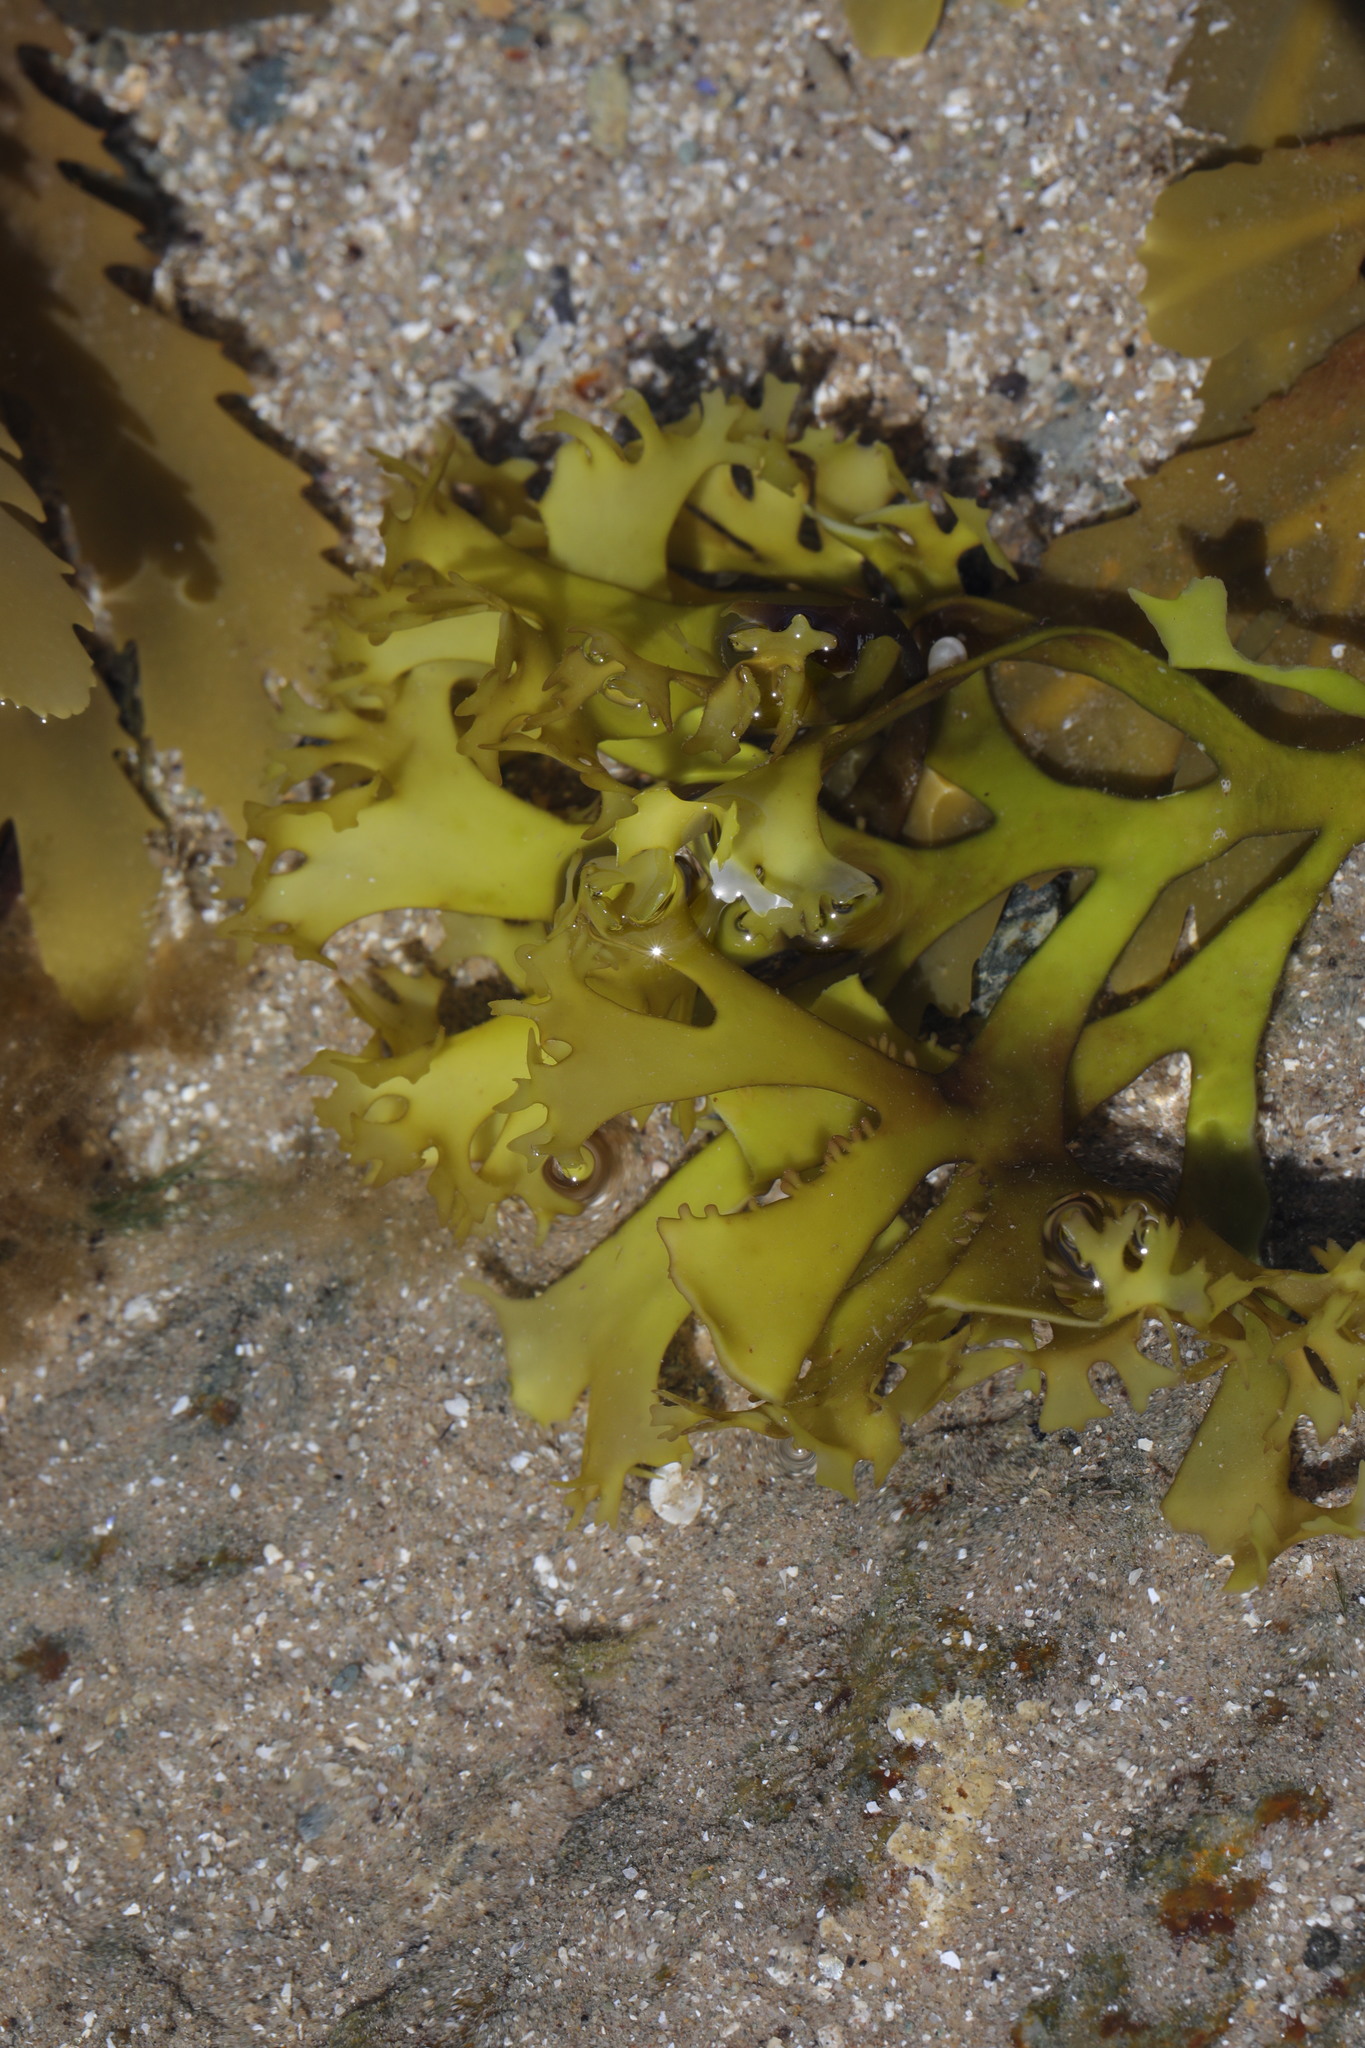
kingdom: Plantae
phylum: Rhodophyta
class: Florideophyceae
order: Gigartinales
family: Gigartinaceae
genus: Chondrus
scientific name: Chondrus crispus
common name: Carrageen
